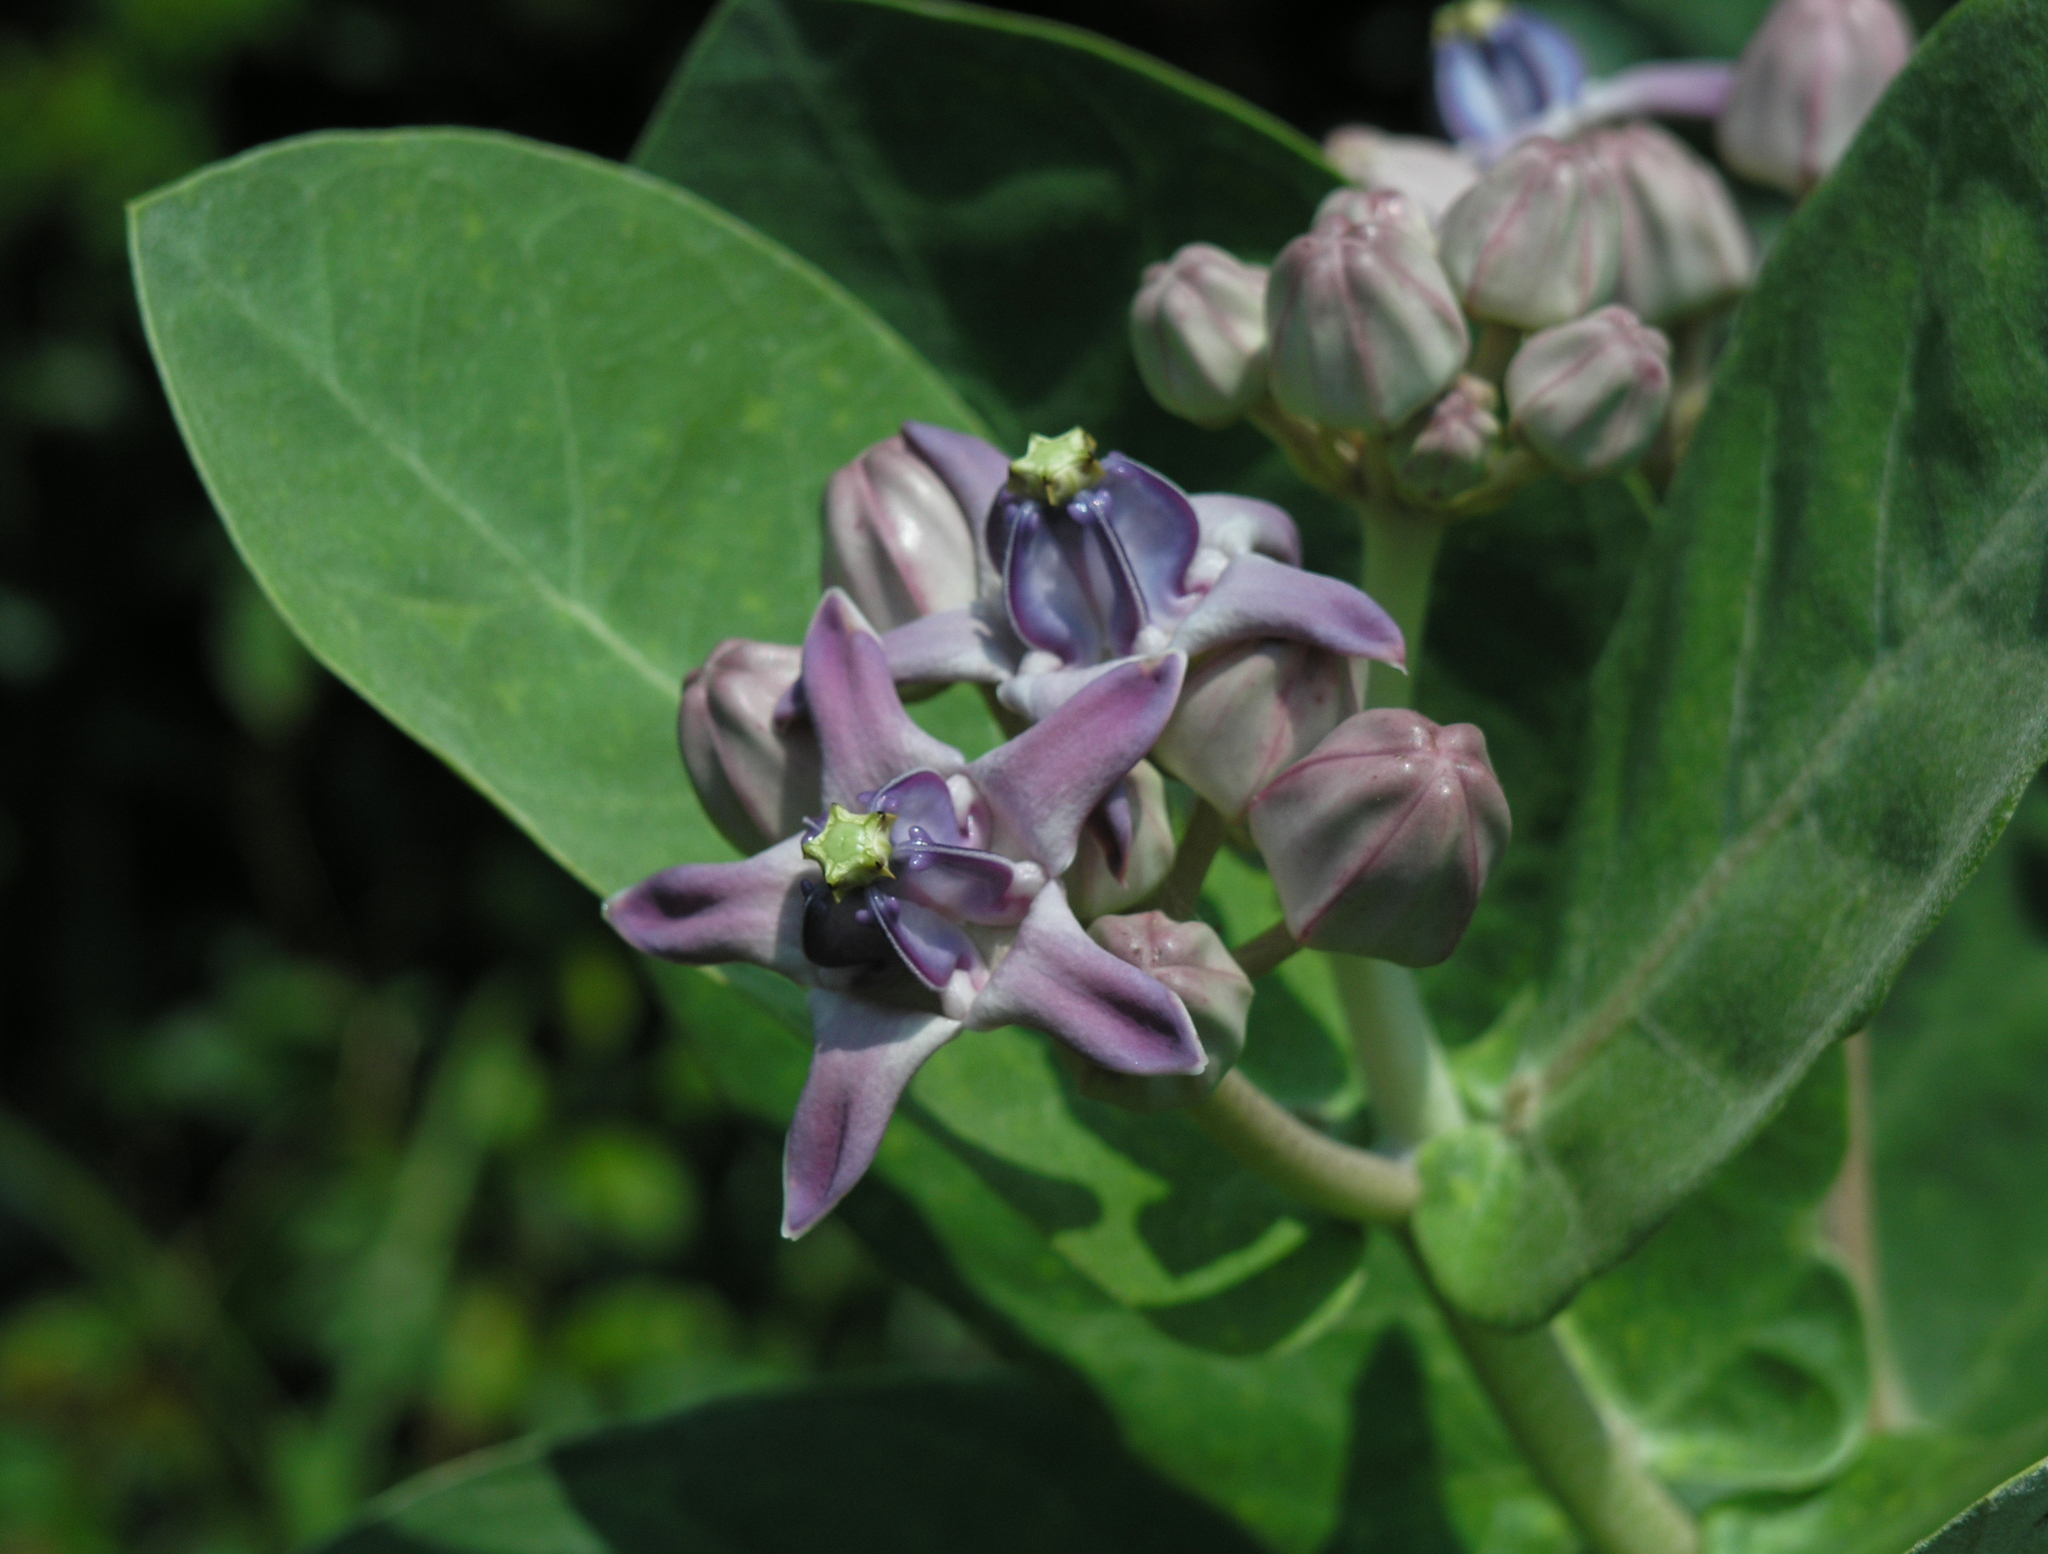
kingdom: Plantae
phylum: Tracheophyta
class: Magnoliopsida
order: Gentianales
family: Apocynaceae
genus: Calotropis
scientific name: Calotropis gigantea
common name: Crown flower
